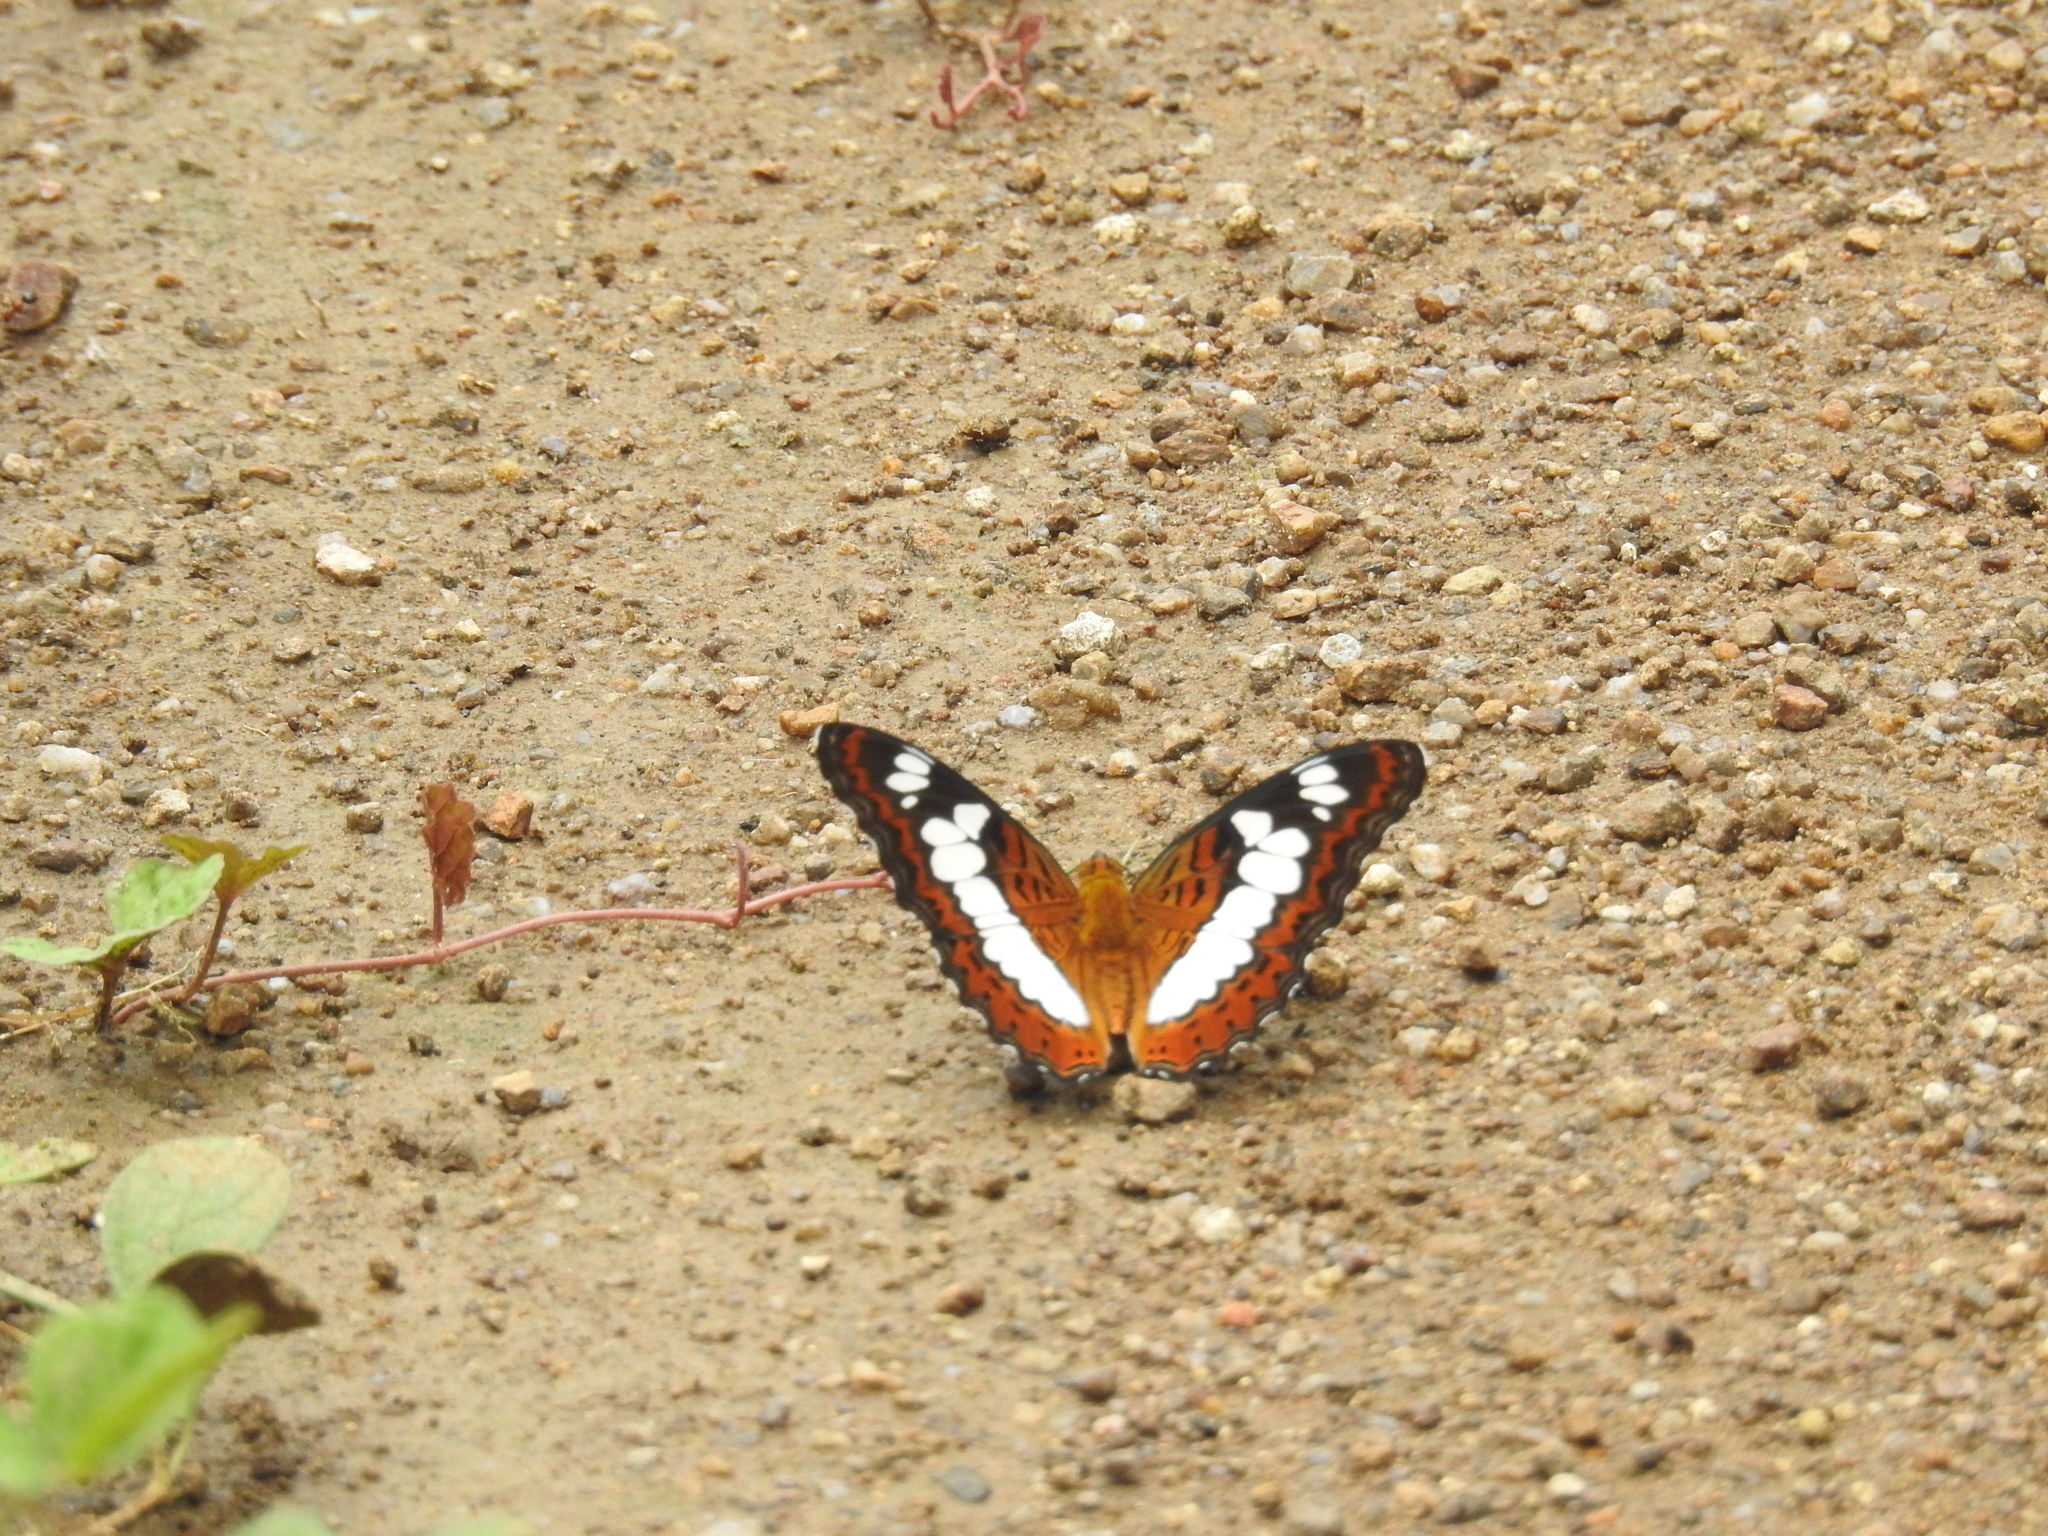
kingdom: Animalia
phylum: Arthropoda
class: Insecta
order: Lepidoptera
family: Nymphalidae
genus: Limenitis
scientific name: Limenitis Moduza procris
